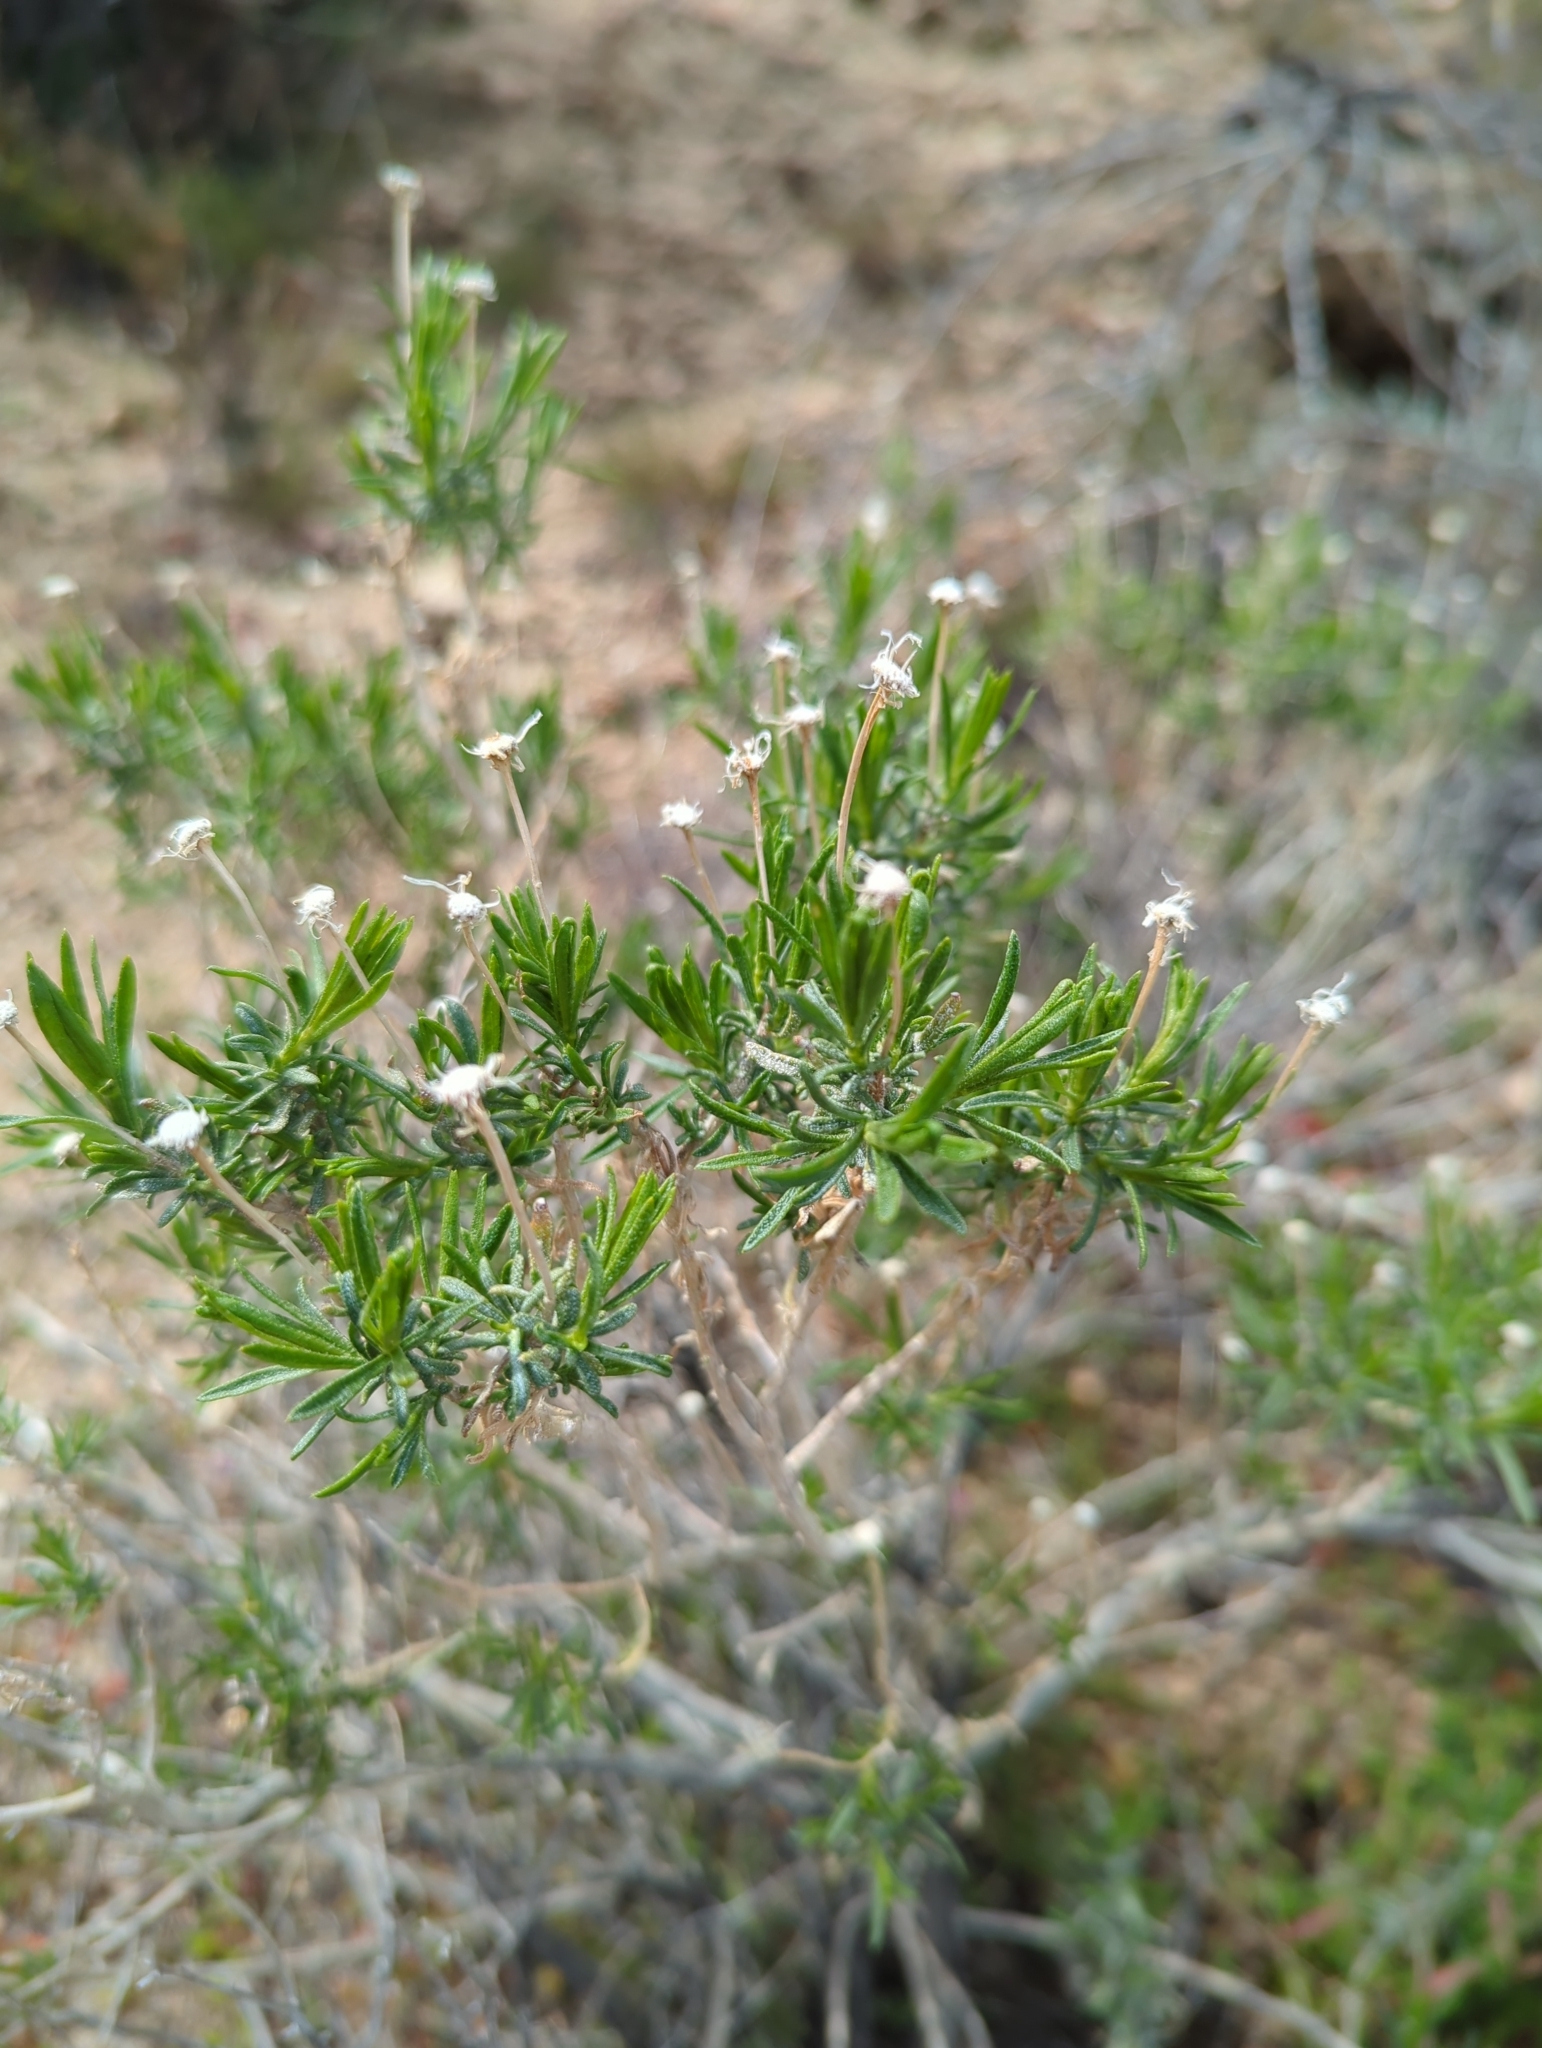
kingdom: Plantae
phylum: Tracheophyta
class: Magnoliopsida
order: Asterales
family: Asteraceae
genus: Ericameria
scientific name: Ericameria linearifolia
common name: Interior goldenbush
